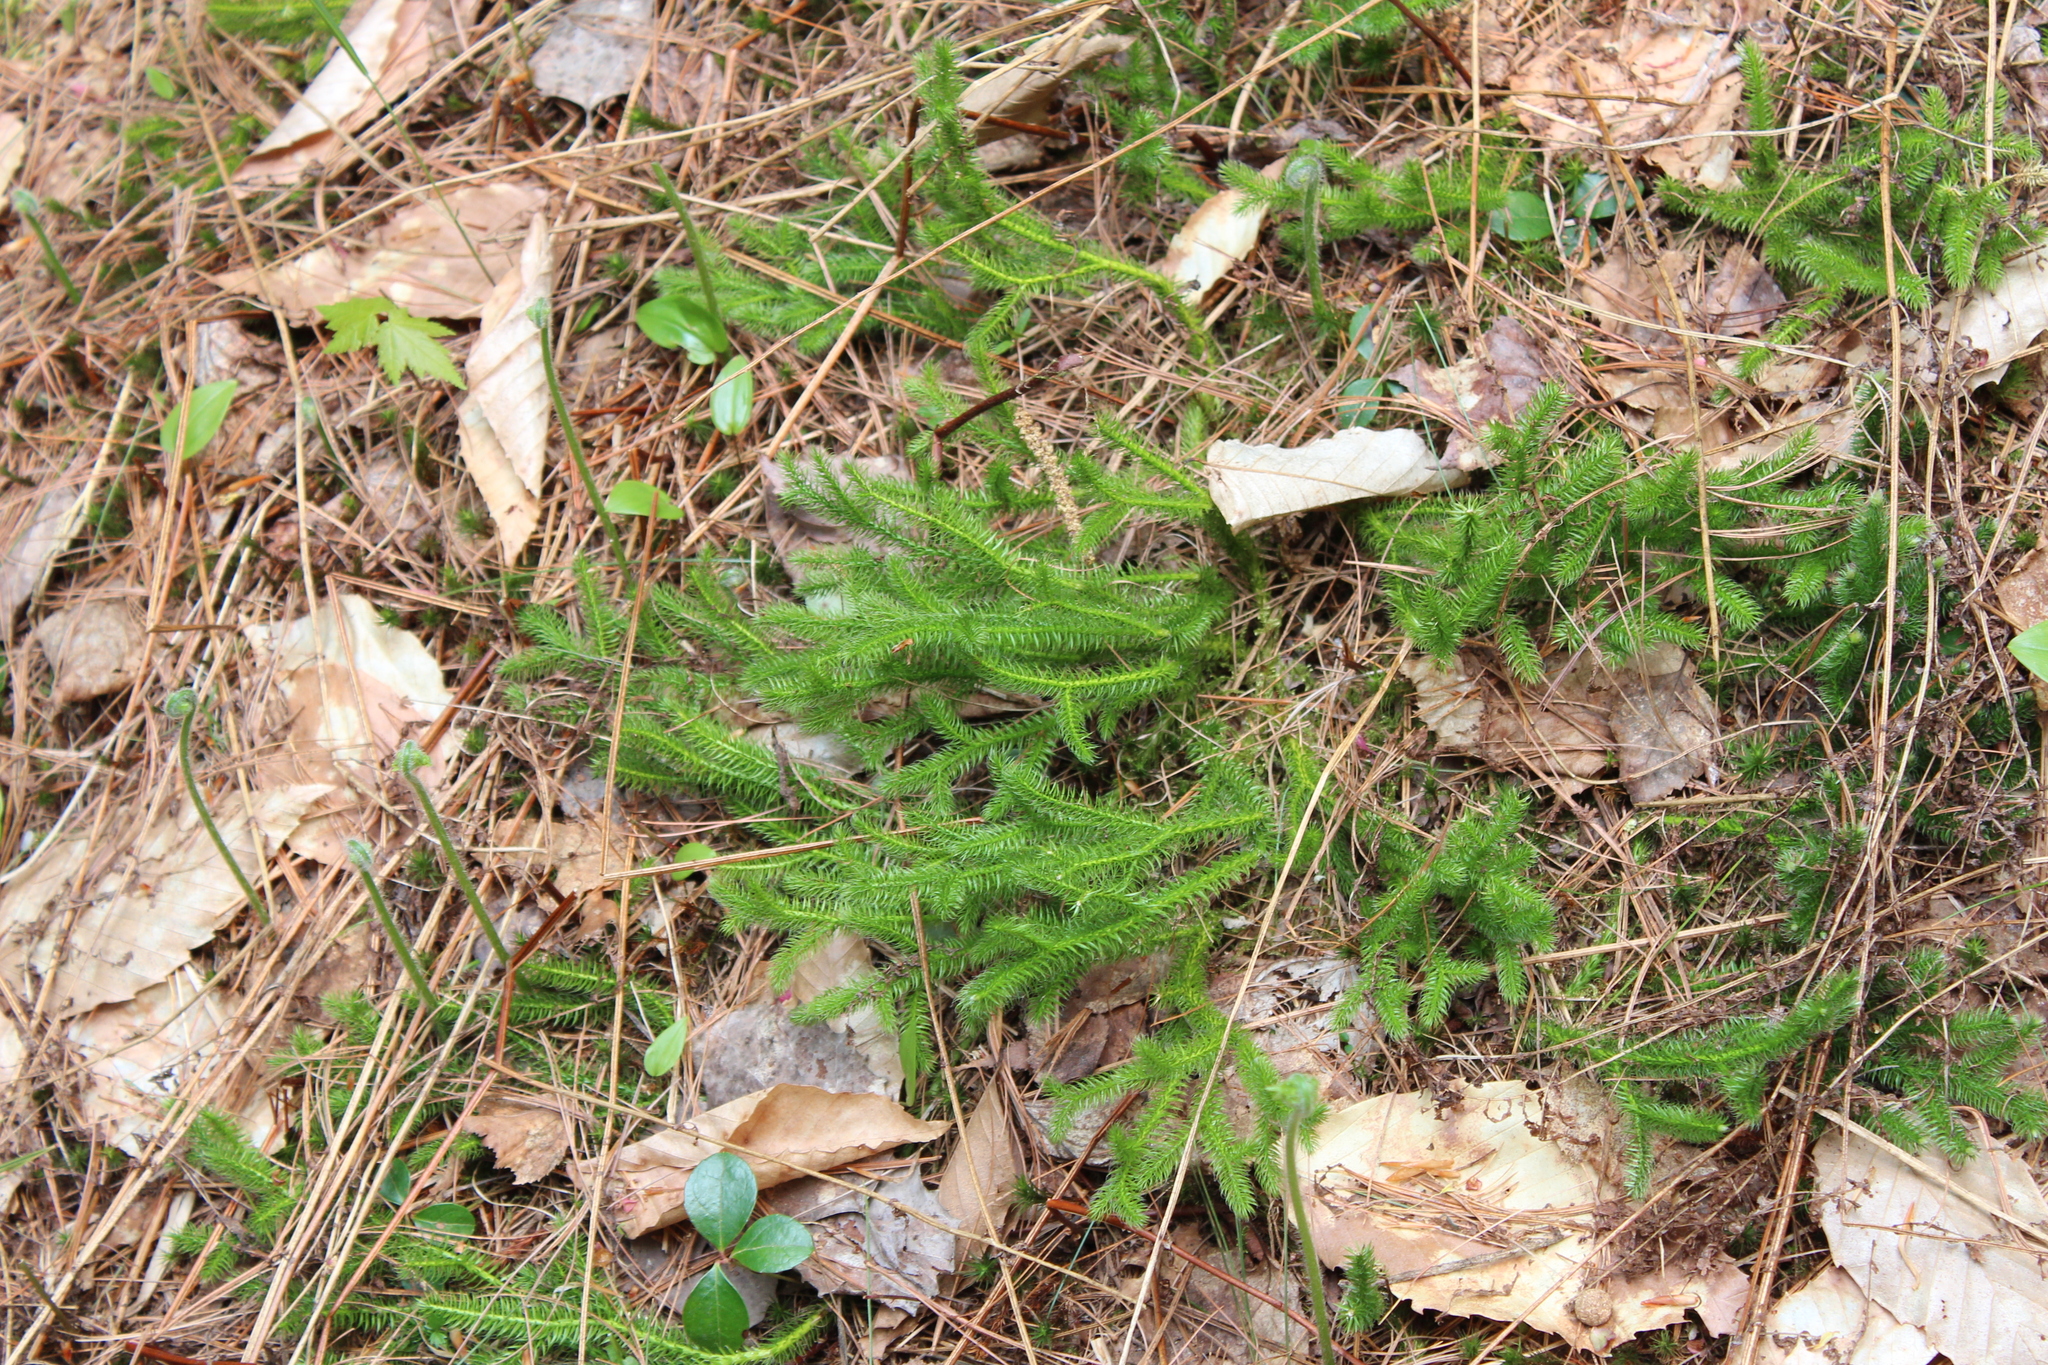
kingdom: Plantae
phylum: Tracheophyta
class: Lycopodiopsida
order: Lycopodiales
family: Lycopodiaceae
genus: Lycopodium
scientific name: Lycopodium clavatum
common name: Stag's-horn clubmoss
